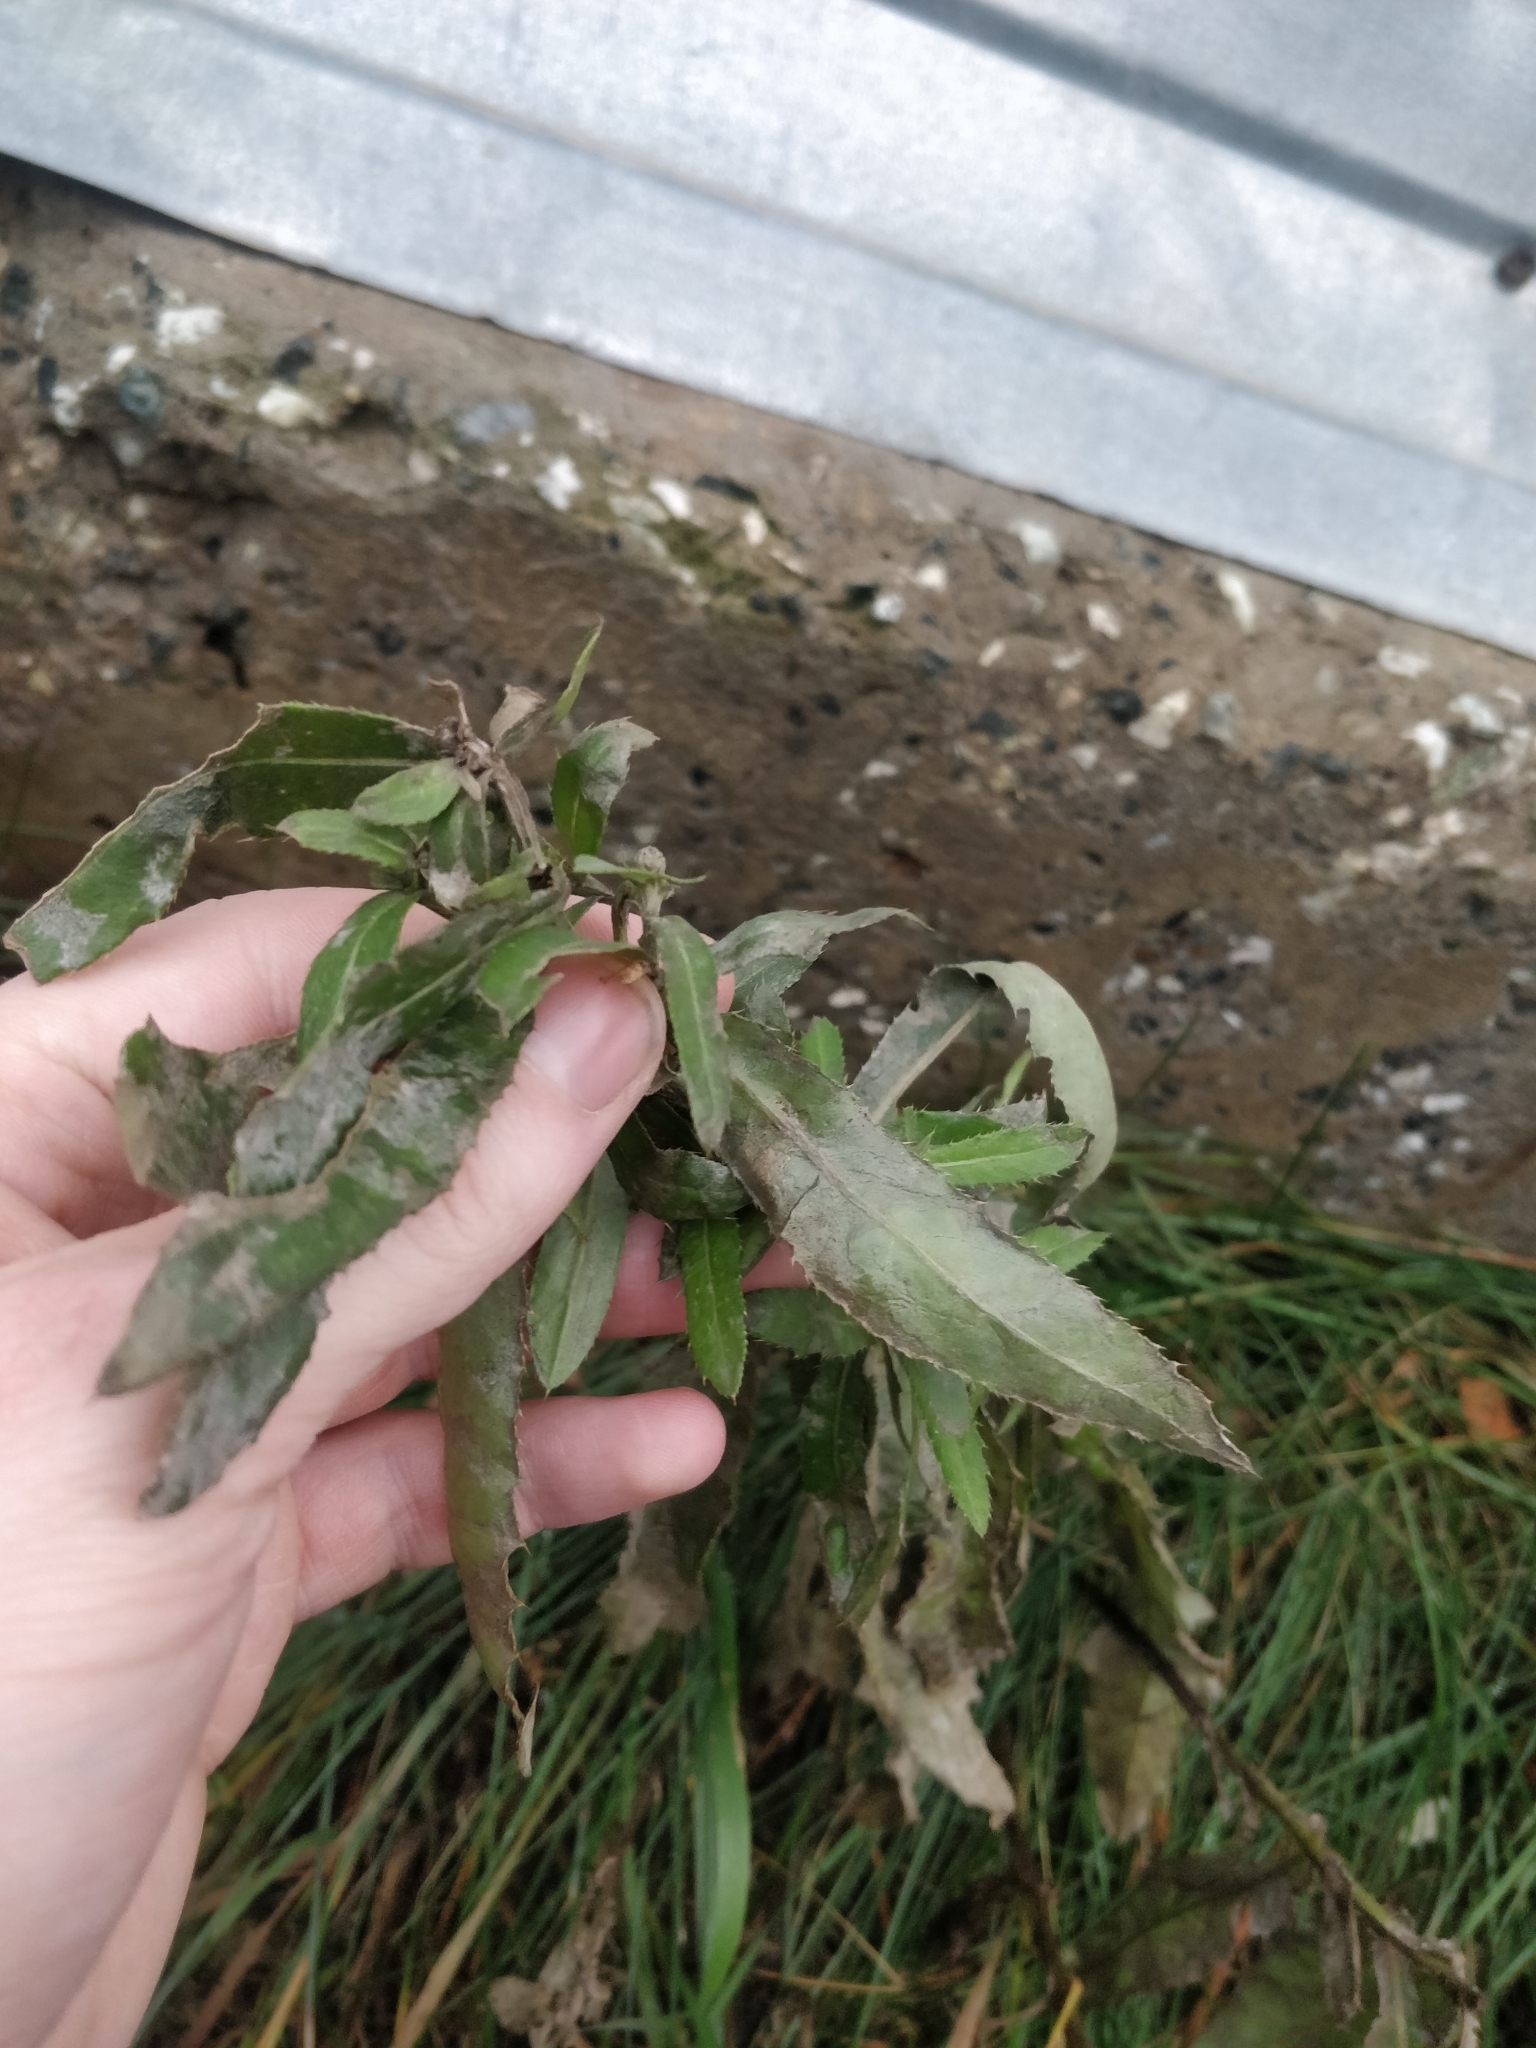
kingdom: Plantae
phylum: Tracheophyta
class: Magnoliopsida
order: Asterales
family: Asteraceae
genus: Cirsium
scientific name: Cirsium arvense
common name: Creeping thistle
